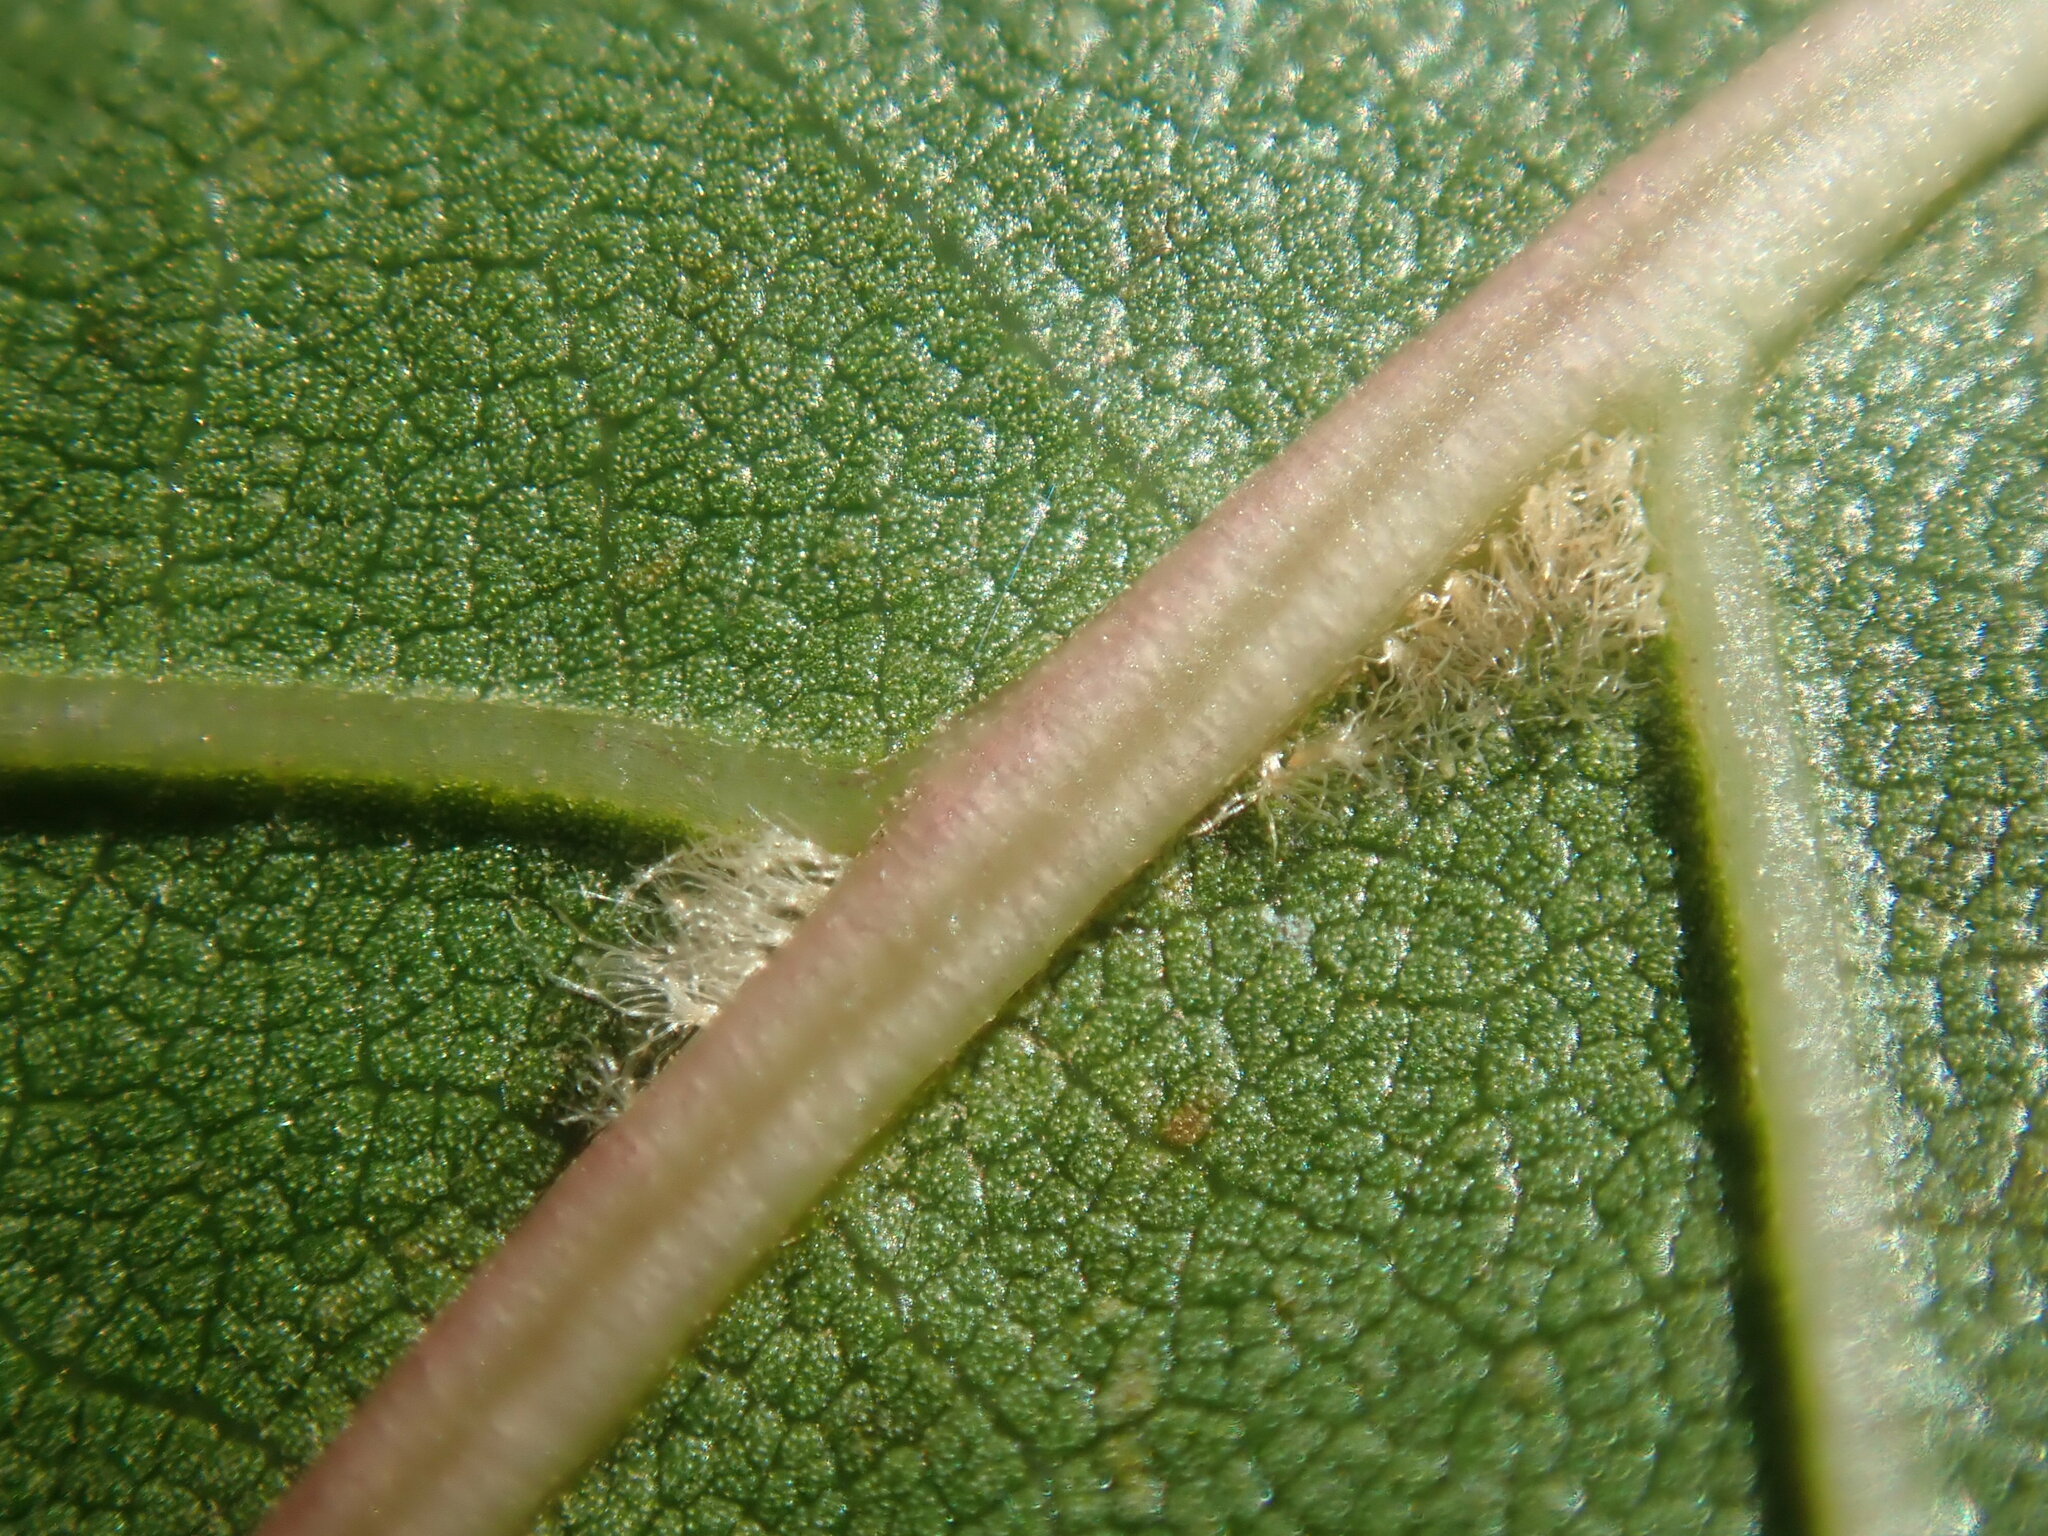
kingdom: Plantae
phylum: Tracheophyta
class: Magnoliopsida
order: Fagales
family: Fagaceae
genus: Quercus
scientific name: Quercus velutina
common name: Black oak
